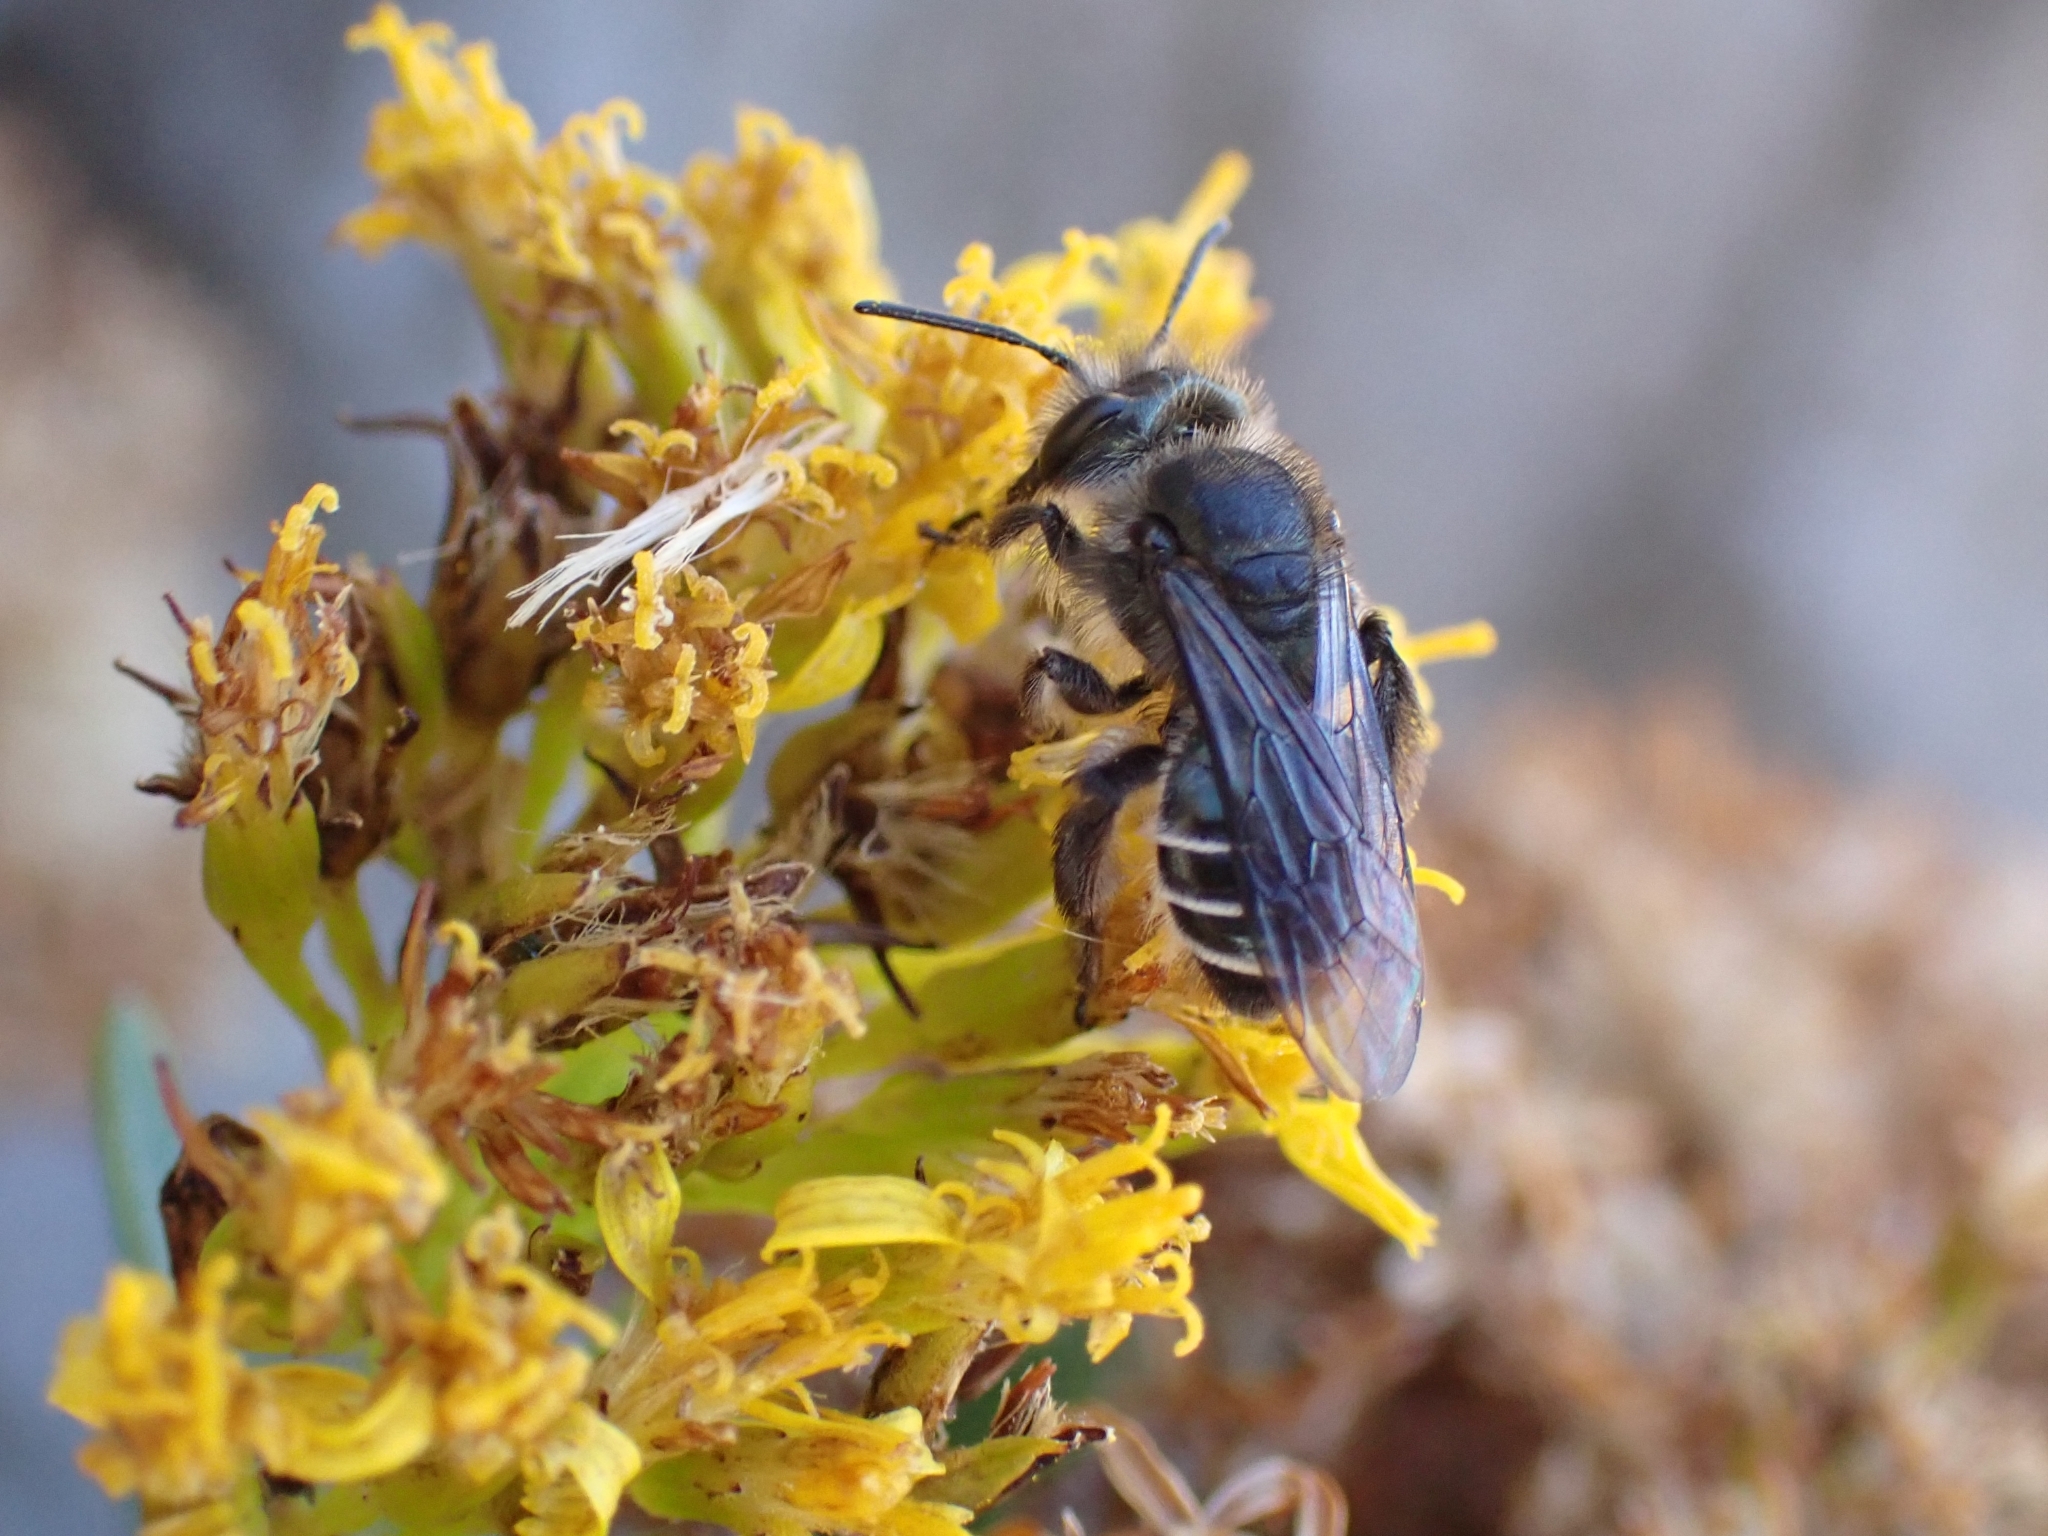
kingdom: Animalia
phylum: Arthropoda
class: Insecta
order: Hymenoptera
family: Andrenidae
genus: Andrena
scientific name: Andrena chalcogastra
